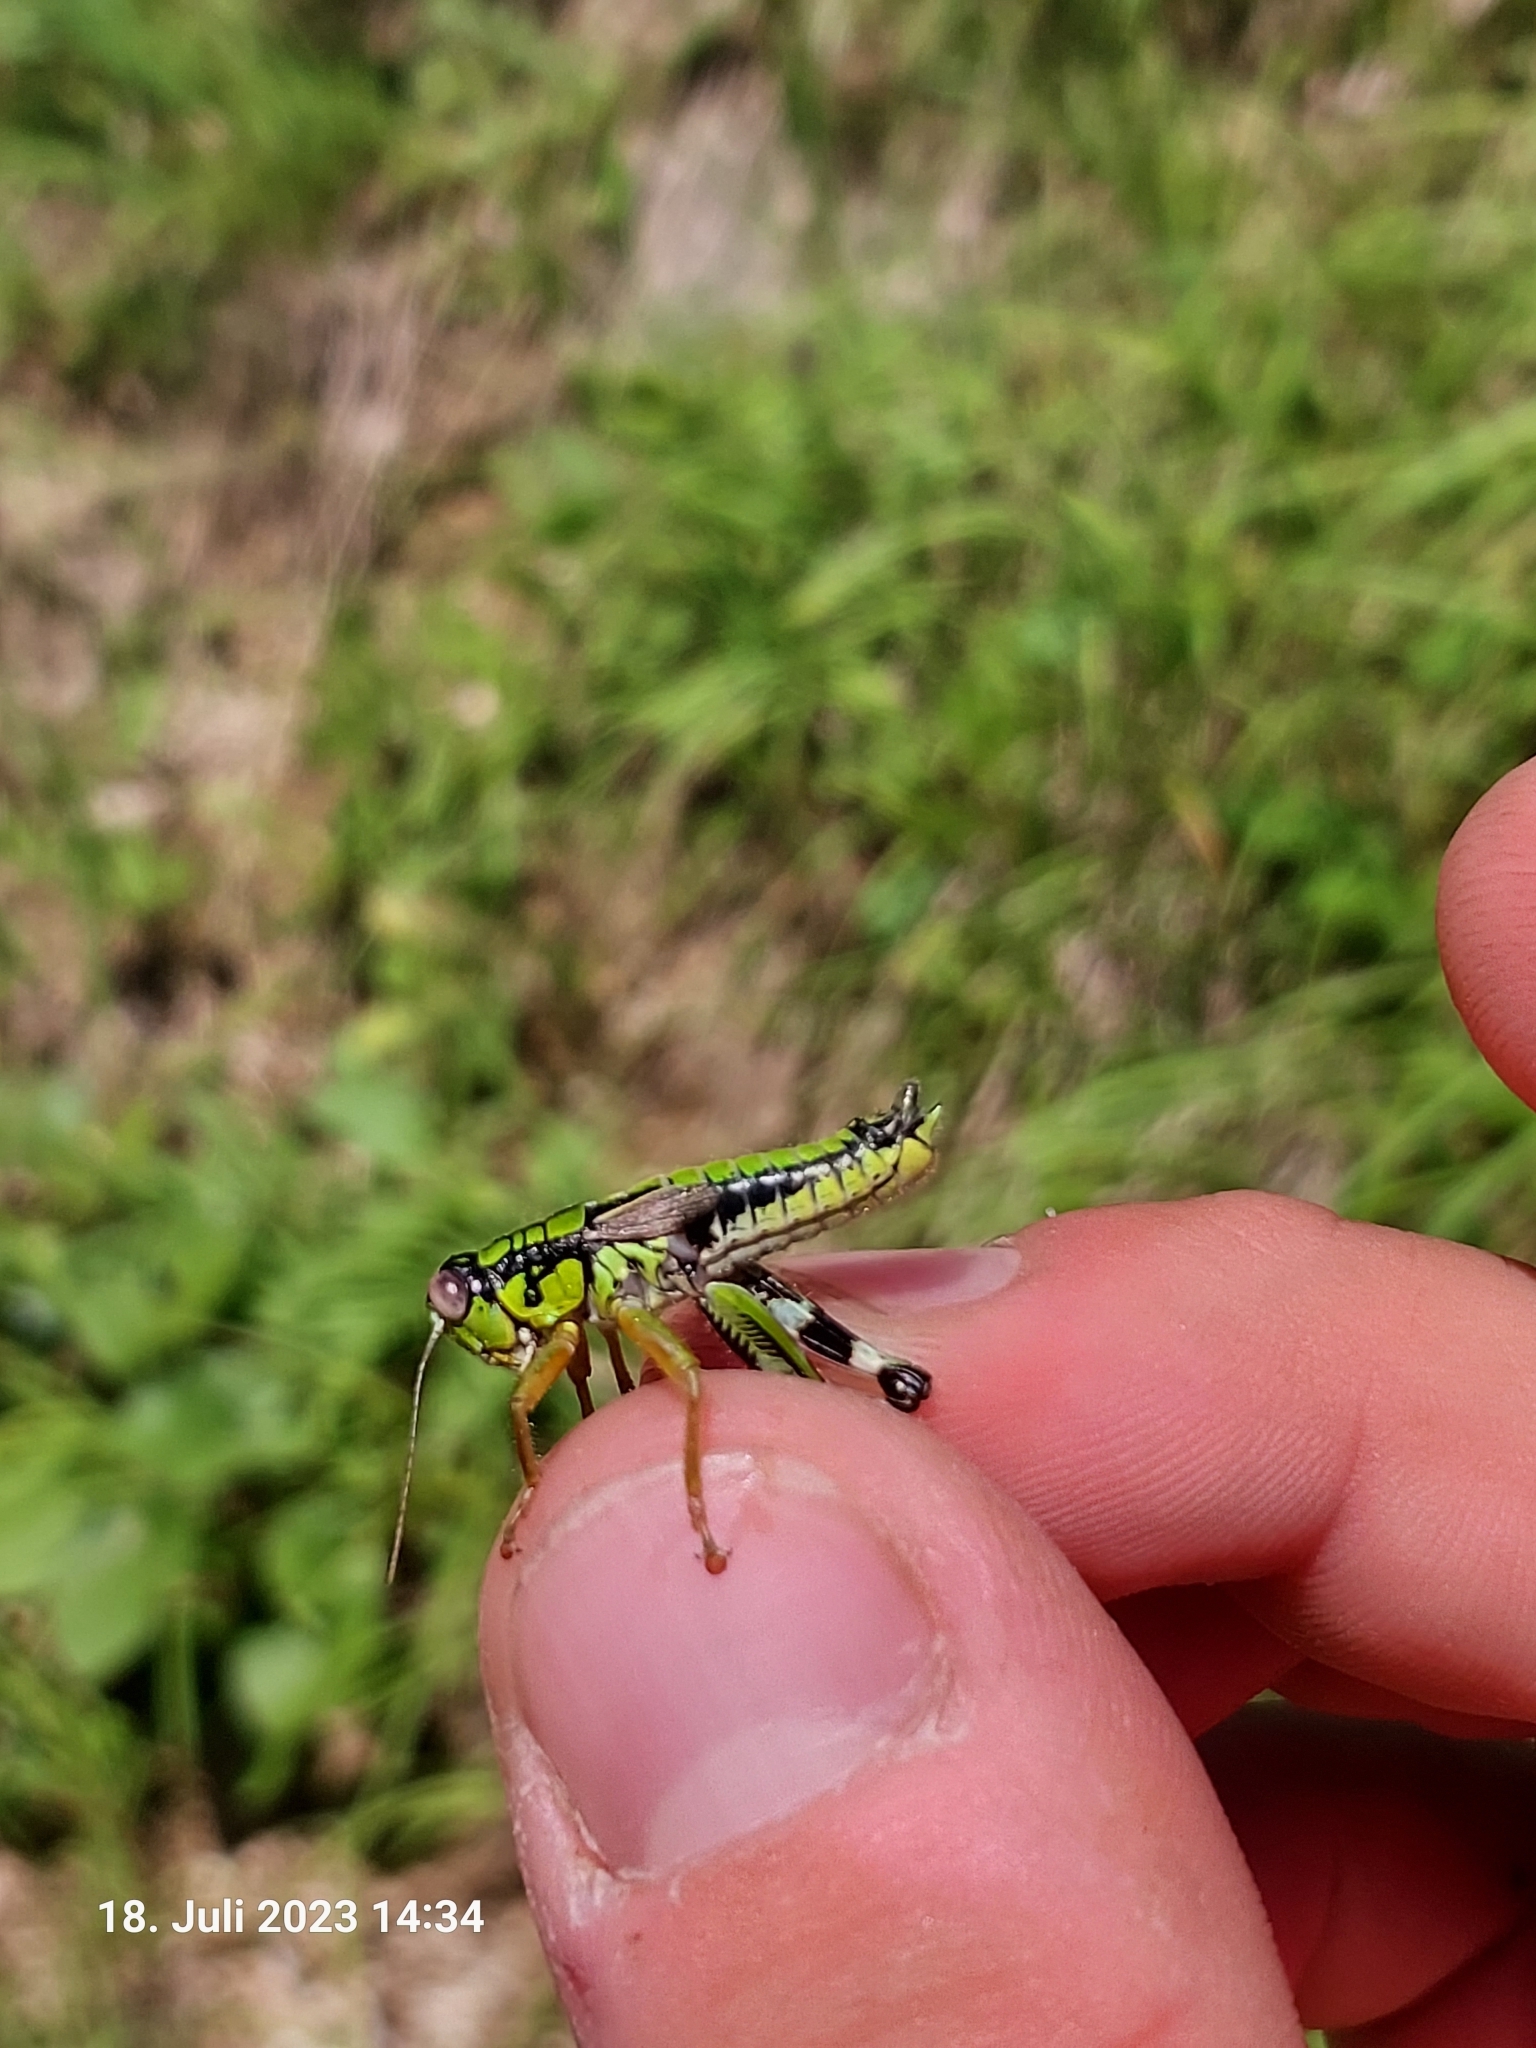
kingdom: Animalia
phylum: Arthropoda
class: Insecta
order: Orthoptera
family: Acrididae
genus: Miramella
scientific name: Miramella alpina
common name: Green mountain grasshopper
